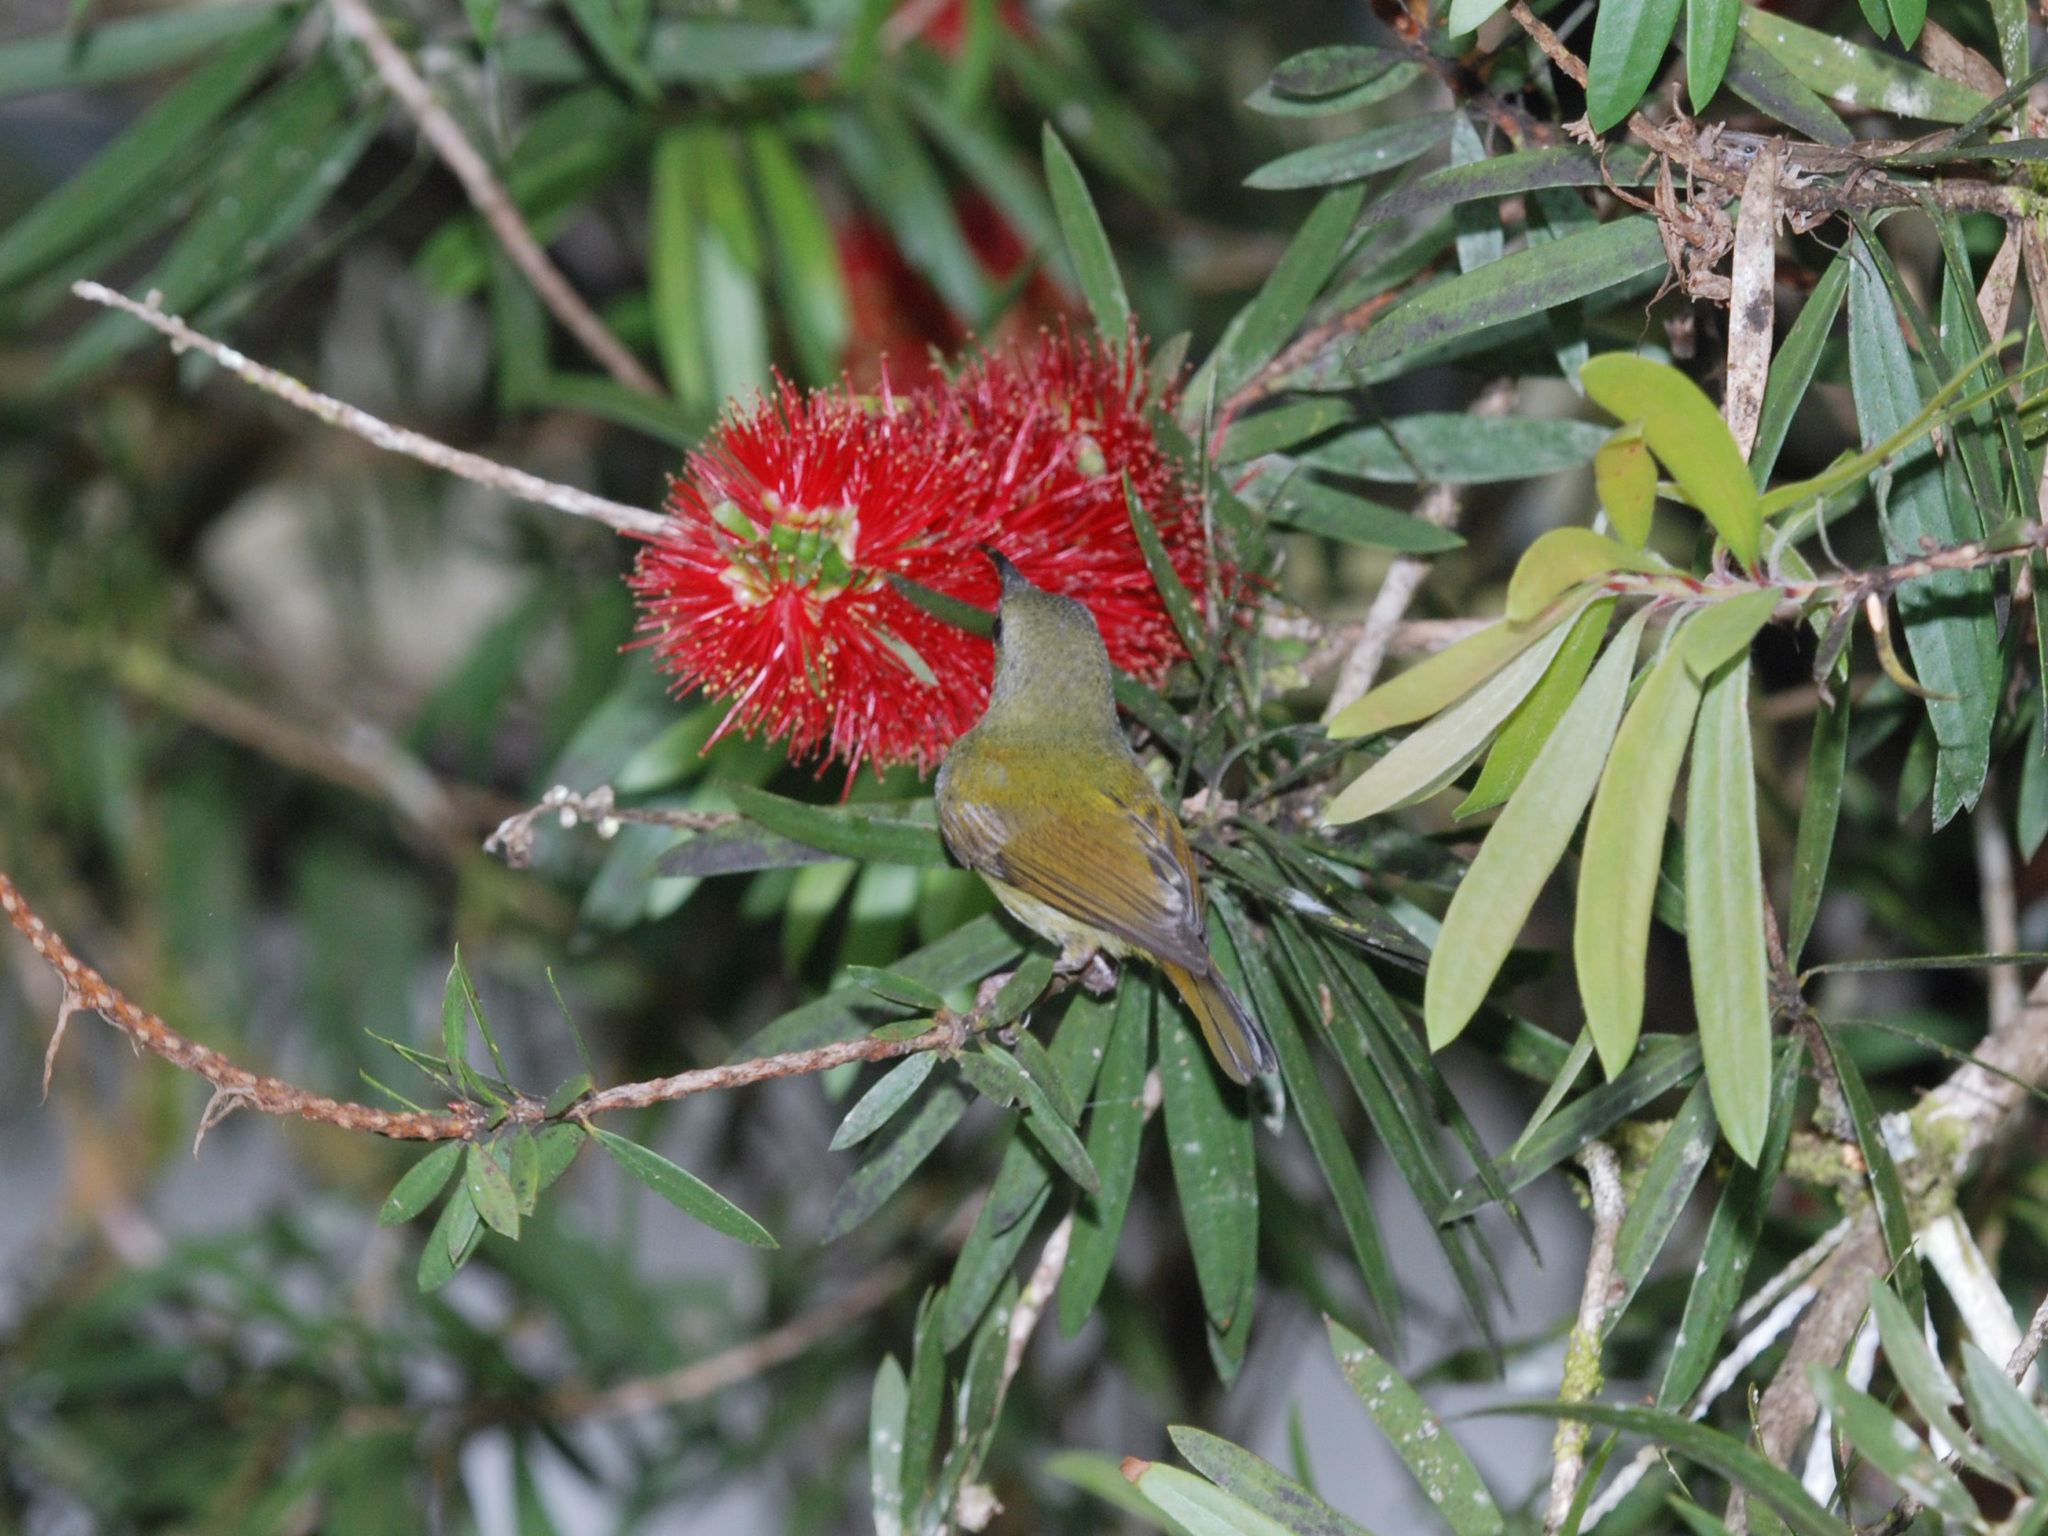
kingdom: Animalia
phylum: Chordata
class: Aves
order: Passeriformes
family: Nectariniidae
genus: Aethopyga
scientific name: Aethopyga saturata
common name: Black-throated sunbird
